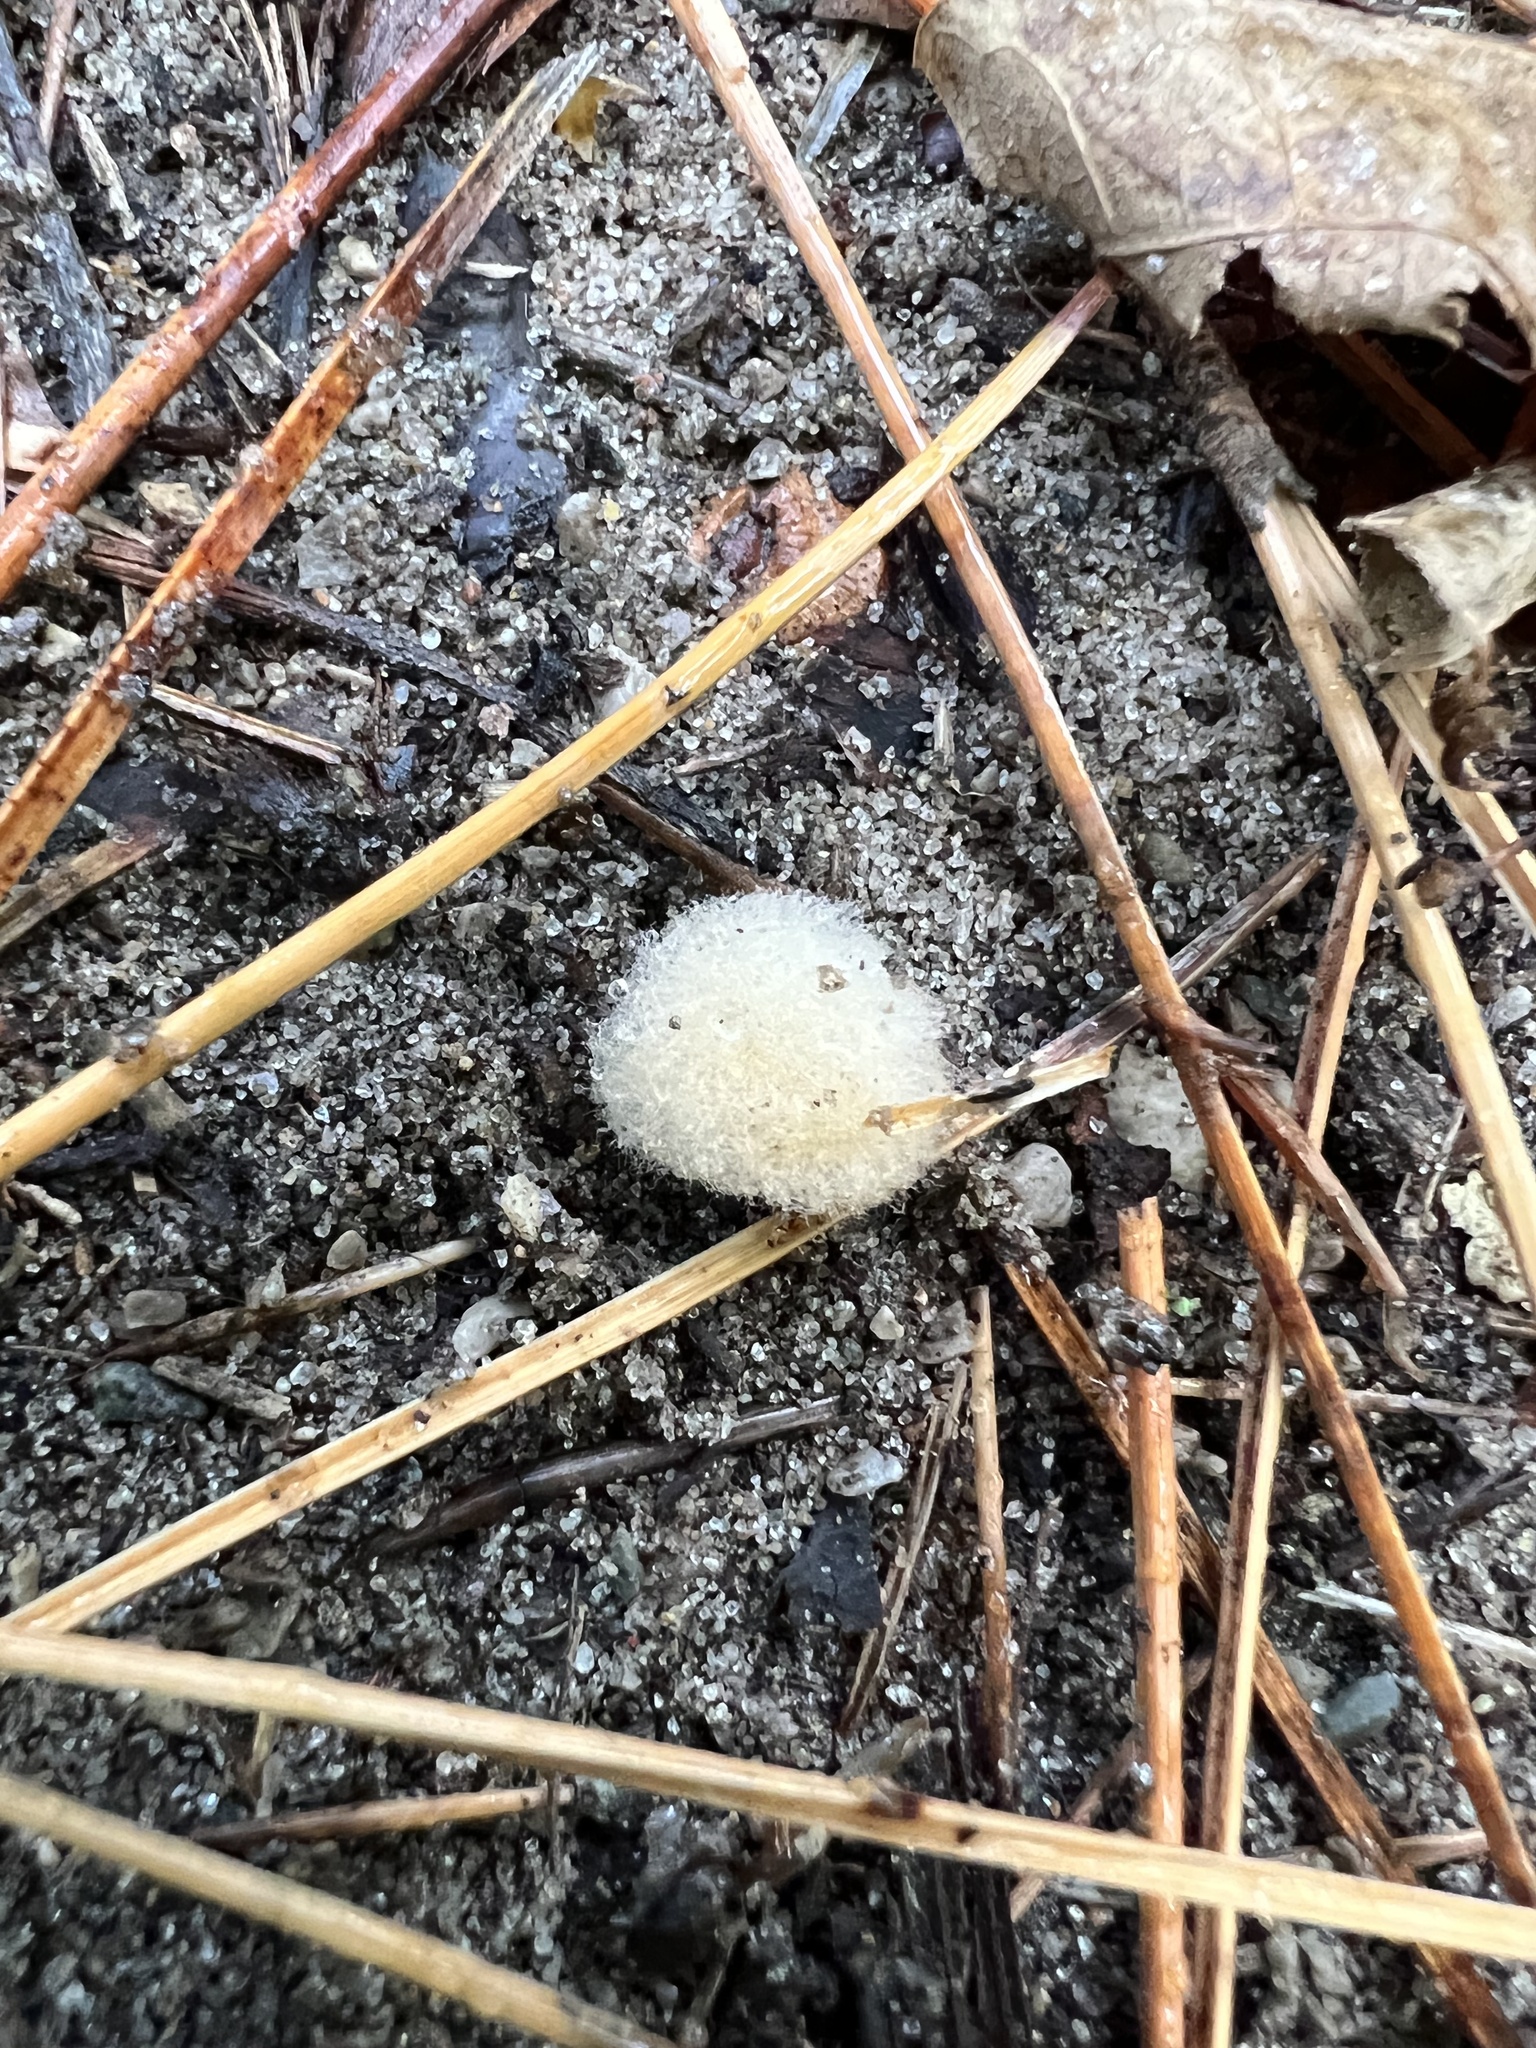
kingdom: Animalia
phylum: Arthropoda
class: Insecta
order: Hymenoptera
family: Cynipidae
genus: Callirhytis
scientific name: Callirhytis
